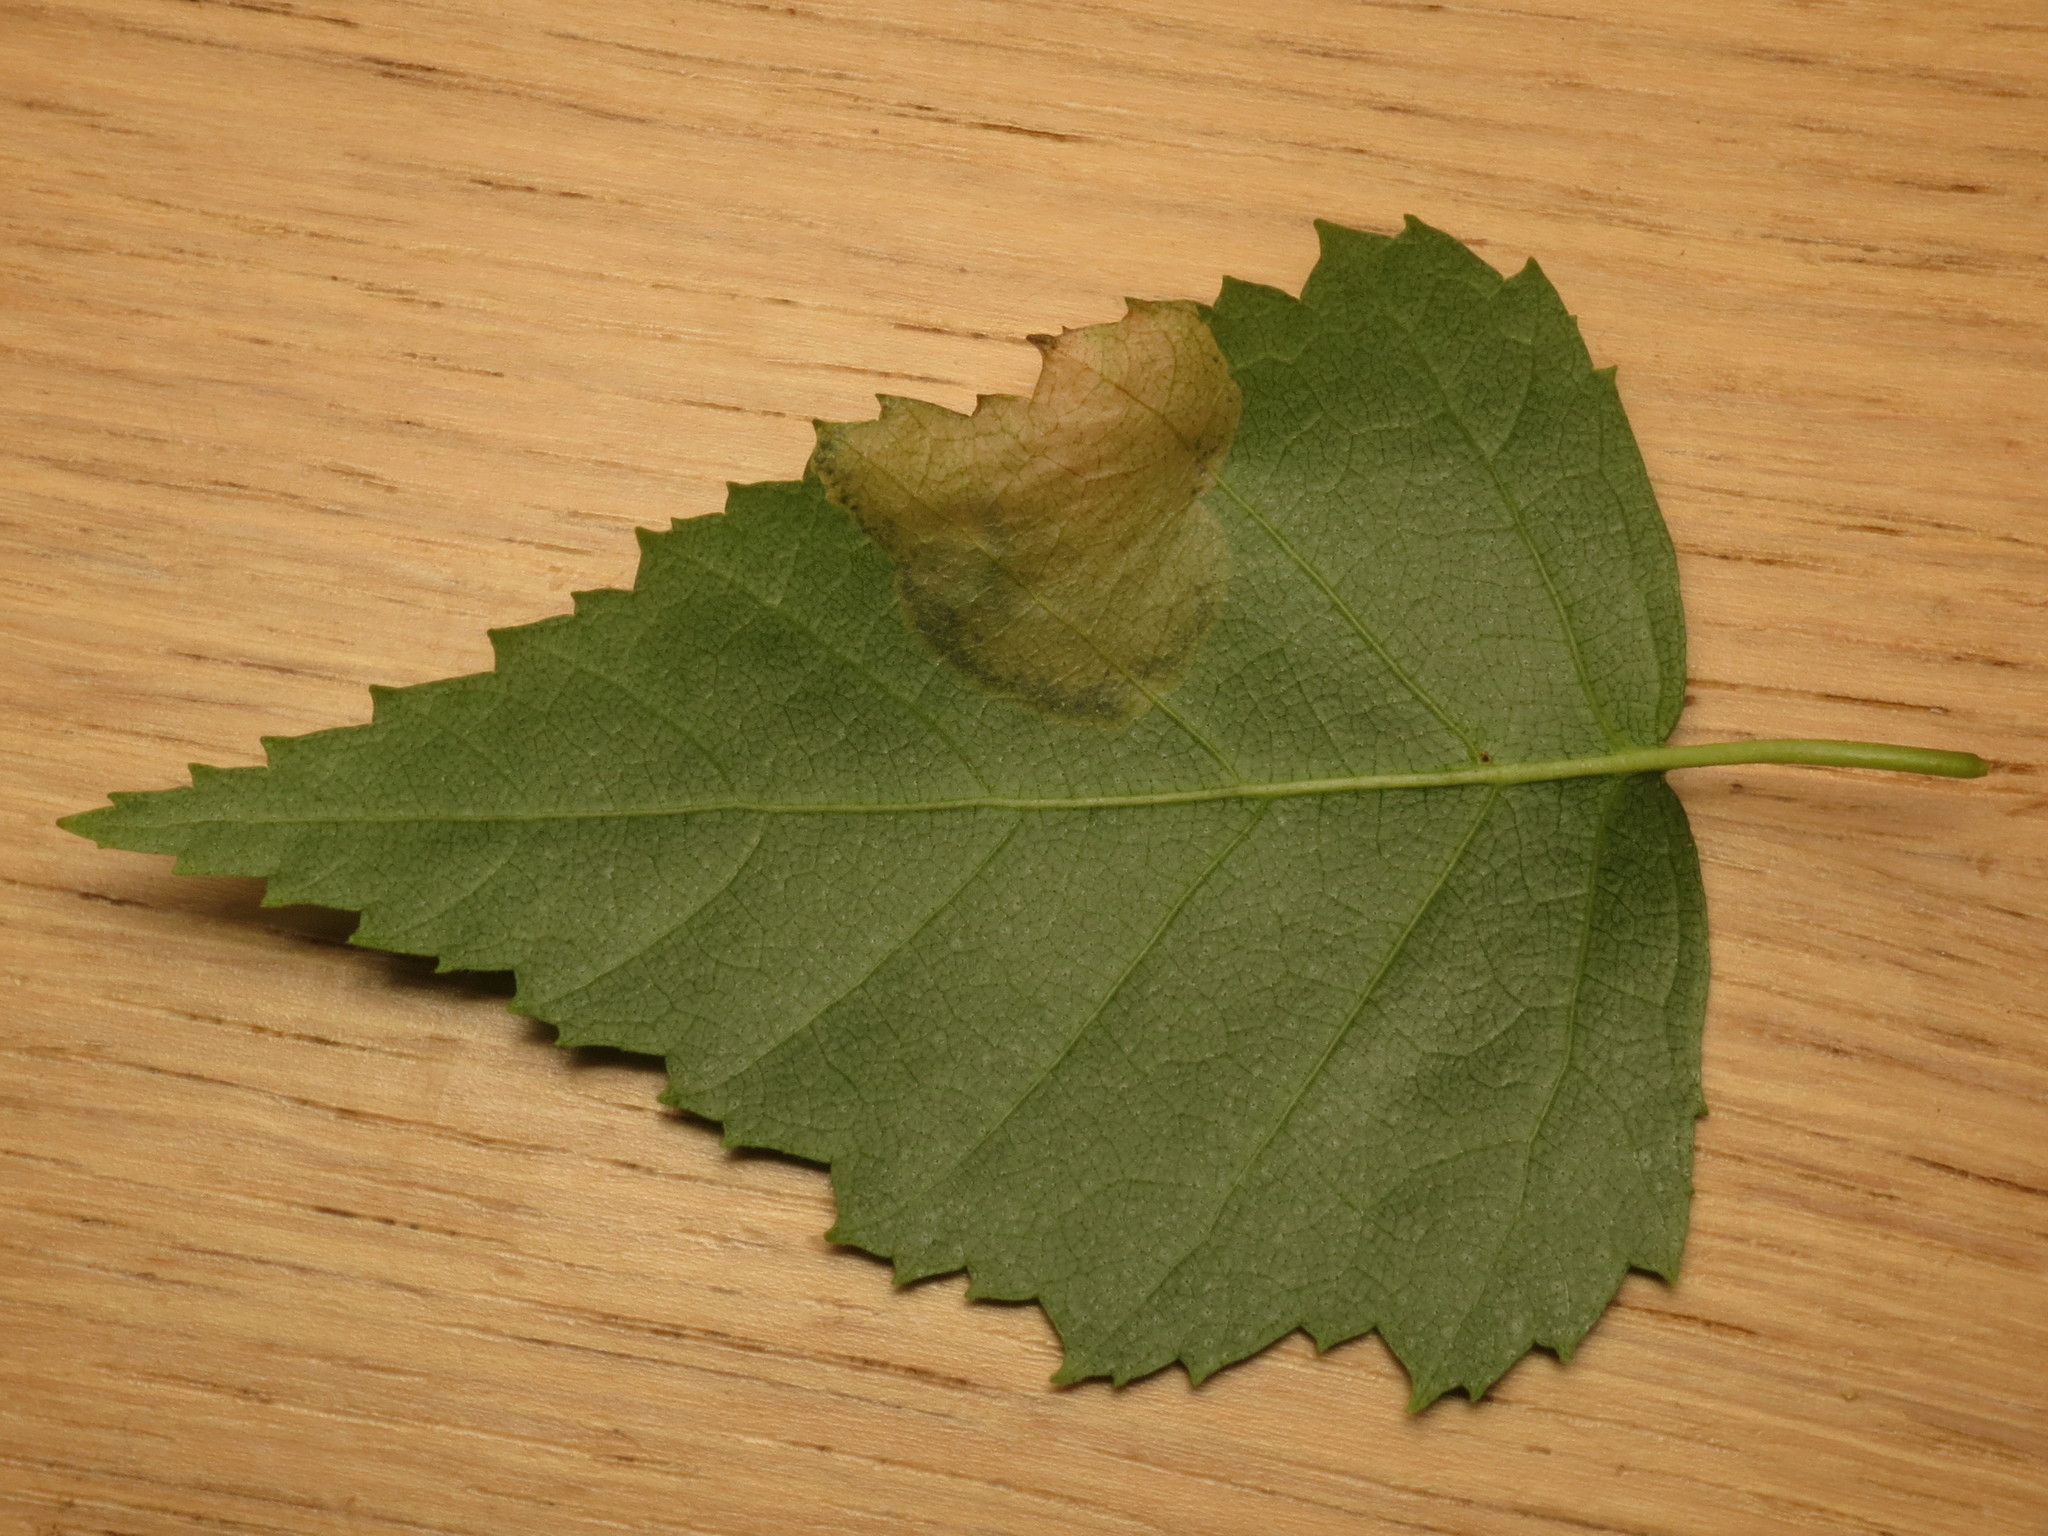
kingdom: Animalia
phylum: Arthropoda
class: Insecta
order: Hymenoptera
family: Tenthredinidae
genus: Scolioneura
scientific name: Scolioneura betuleti
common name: Wasp
